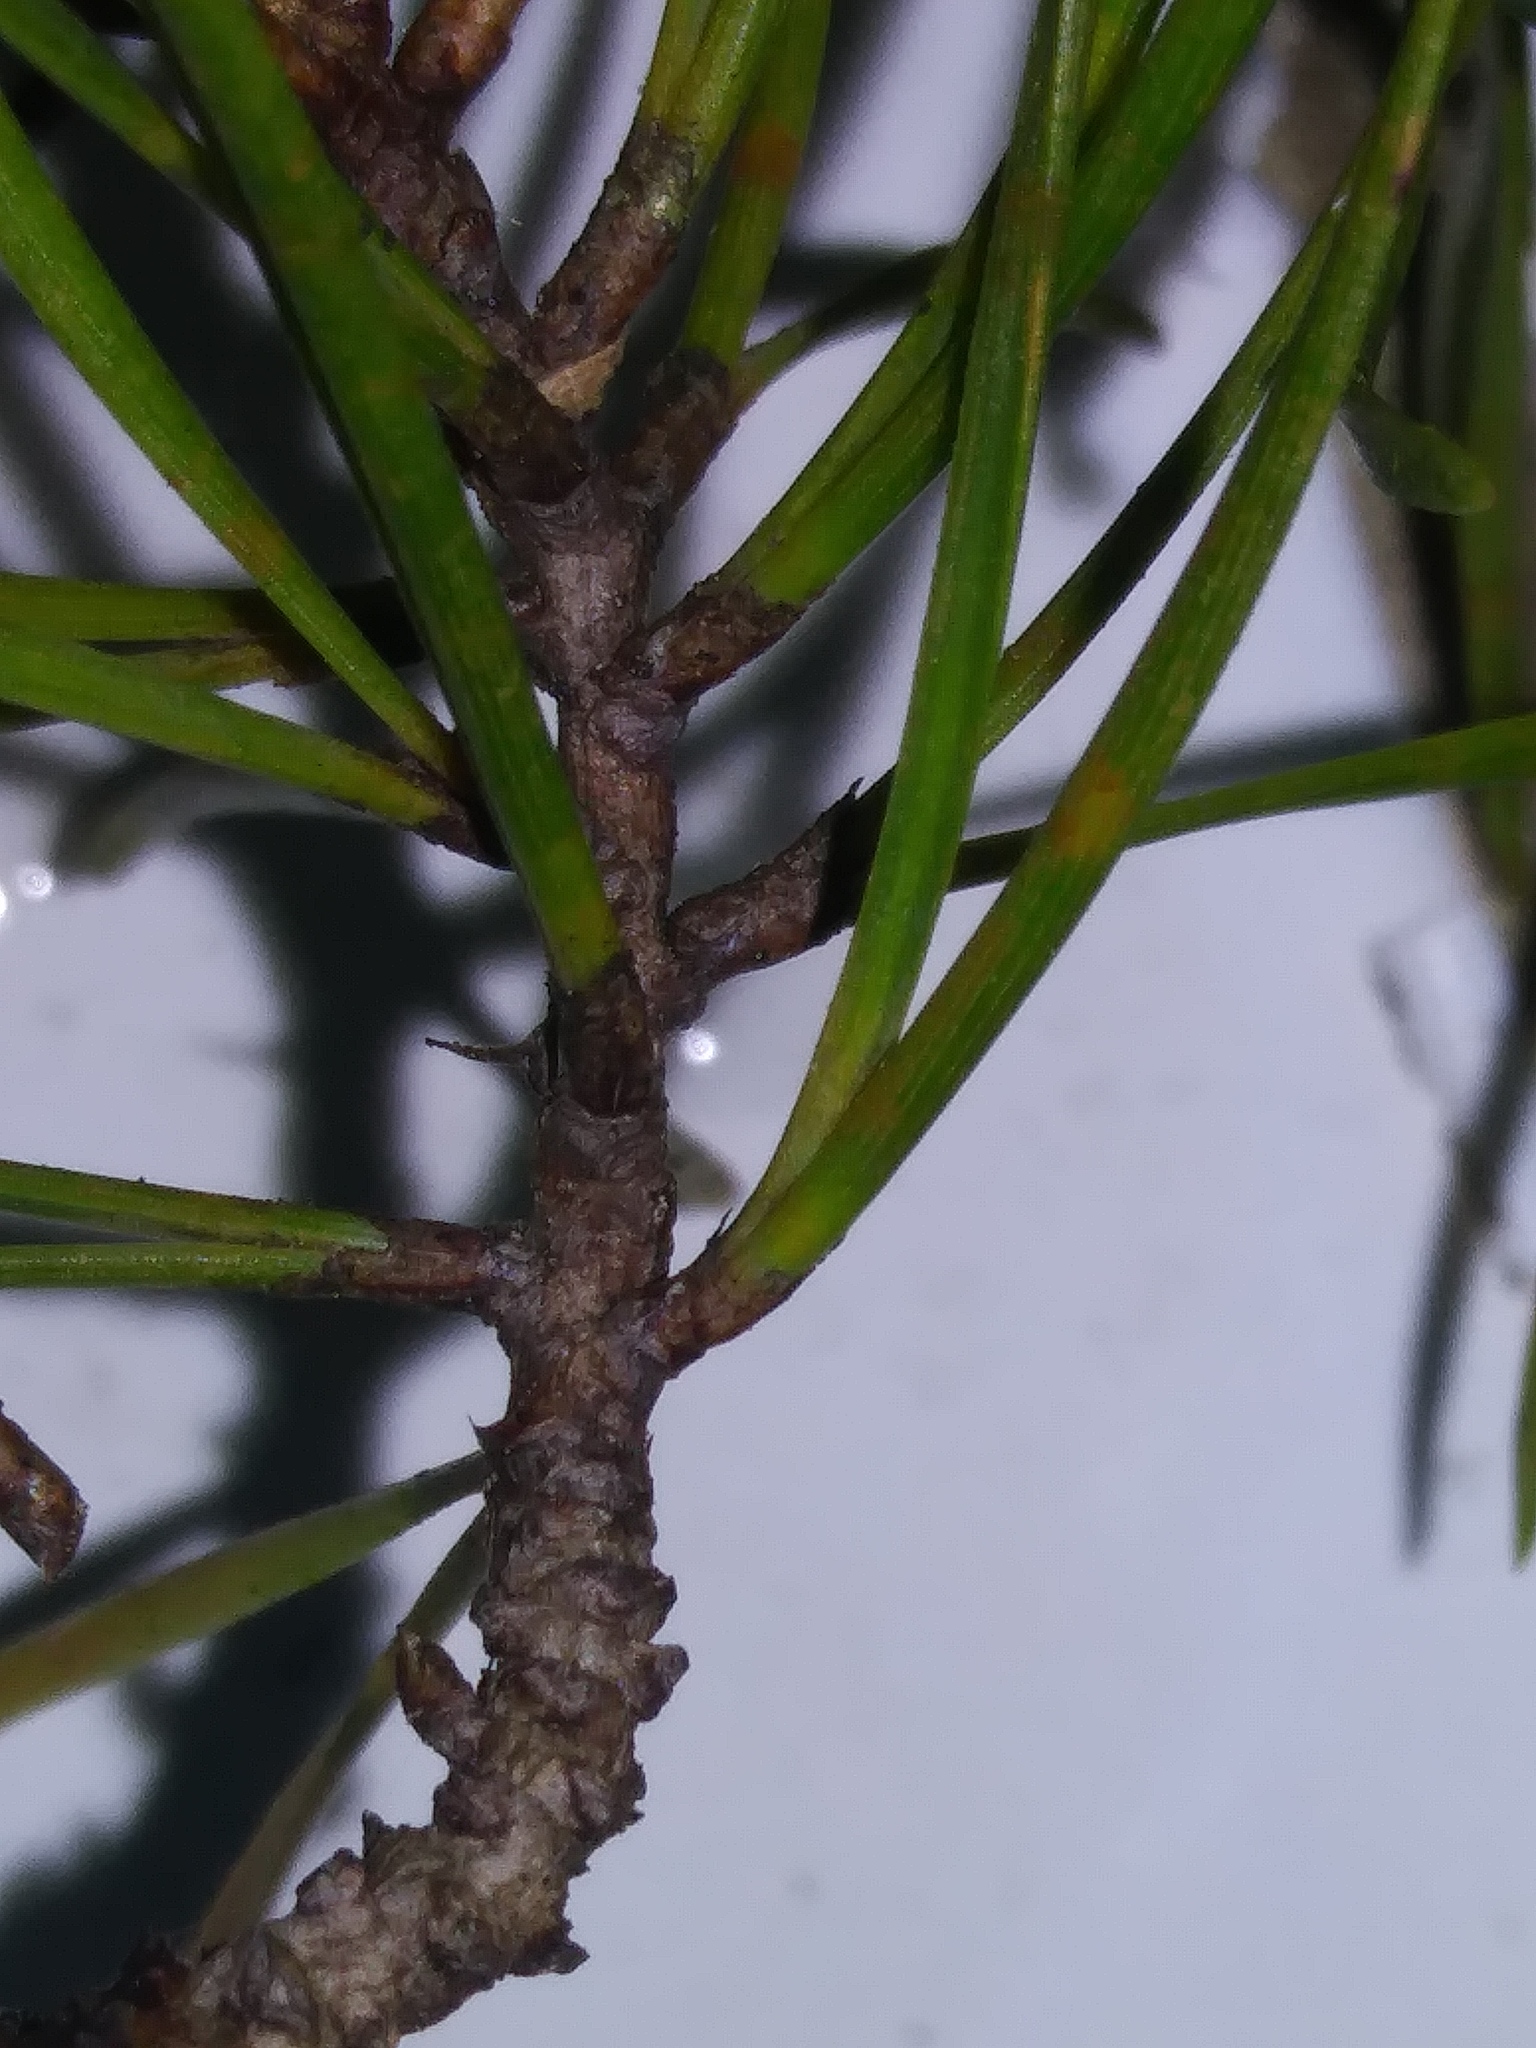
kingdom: Plantae
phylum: Tracheophyta
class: Pinopsida
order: Pinales
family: Pinaceae
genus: Pinus
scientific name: Pinus virginiana
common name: Scrub pine
